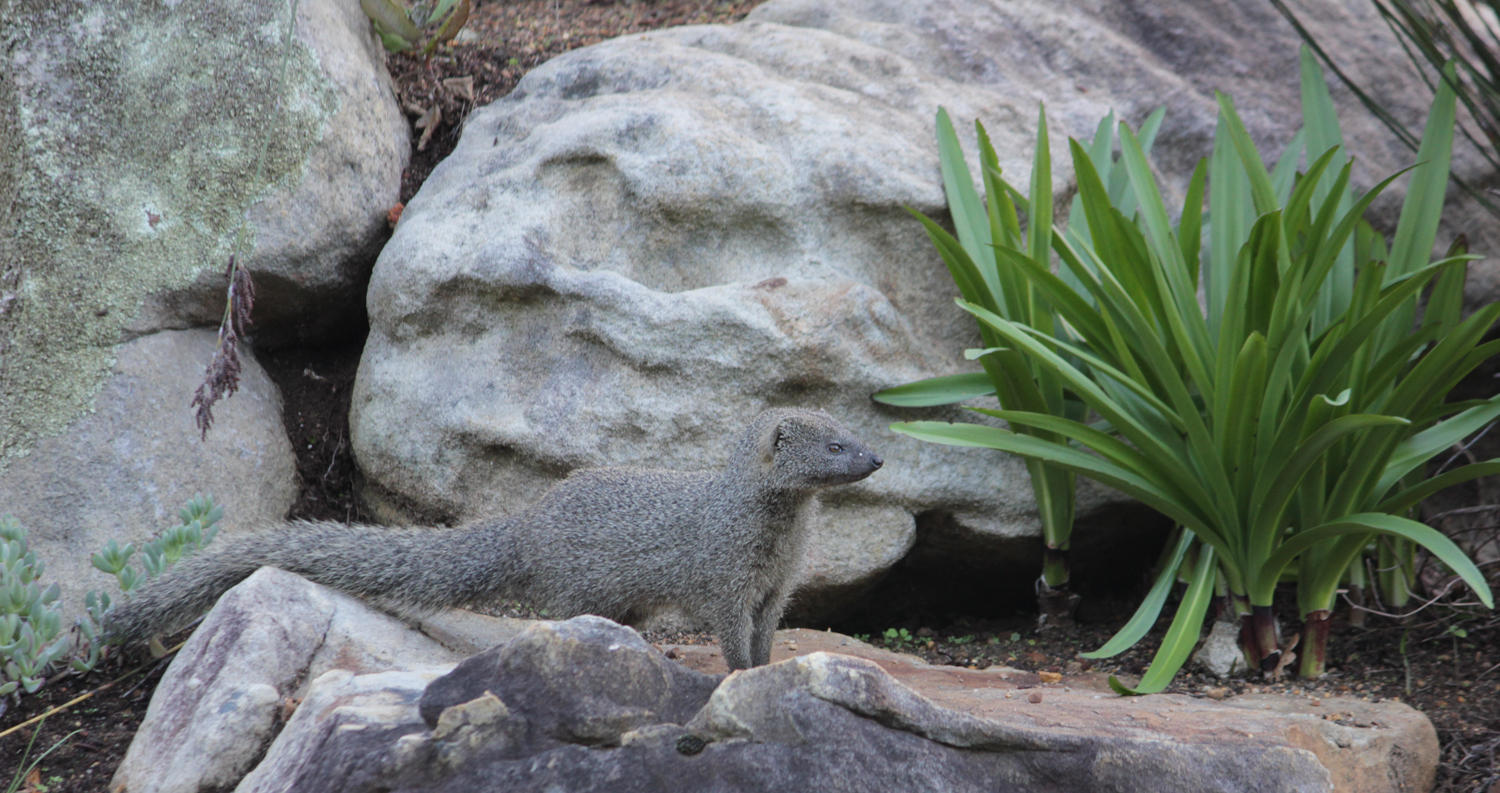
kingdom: Animalia
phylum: Chordata
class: Mammalia
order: Carnivora
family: Herpestidae
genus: Galerella
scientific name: Galerella pulverulenta
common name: Cape gray mongoose
